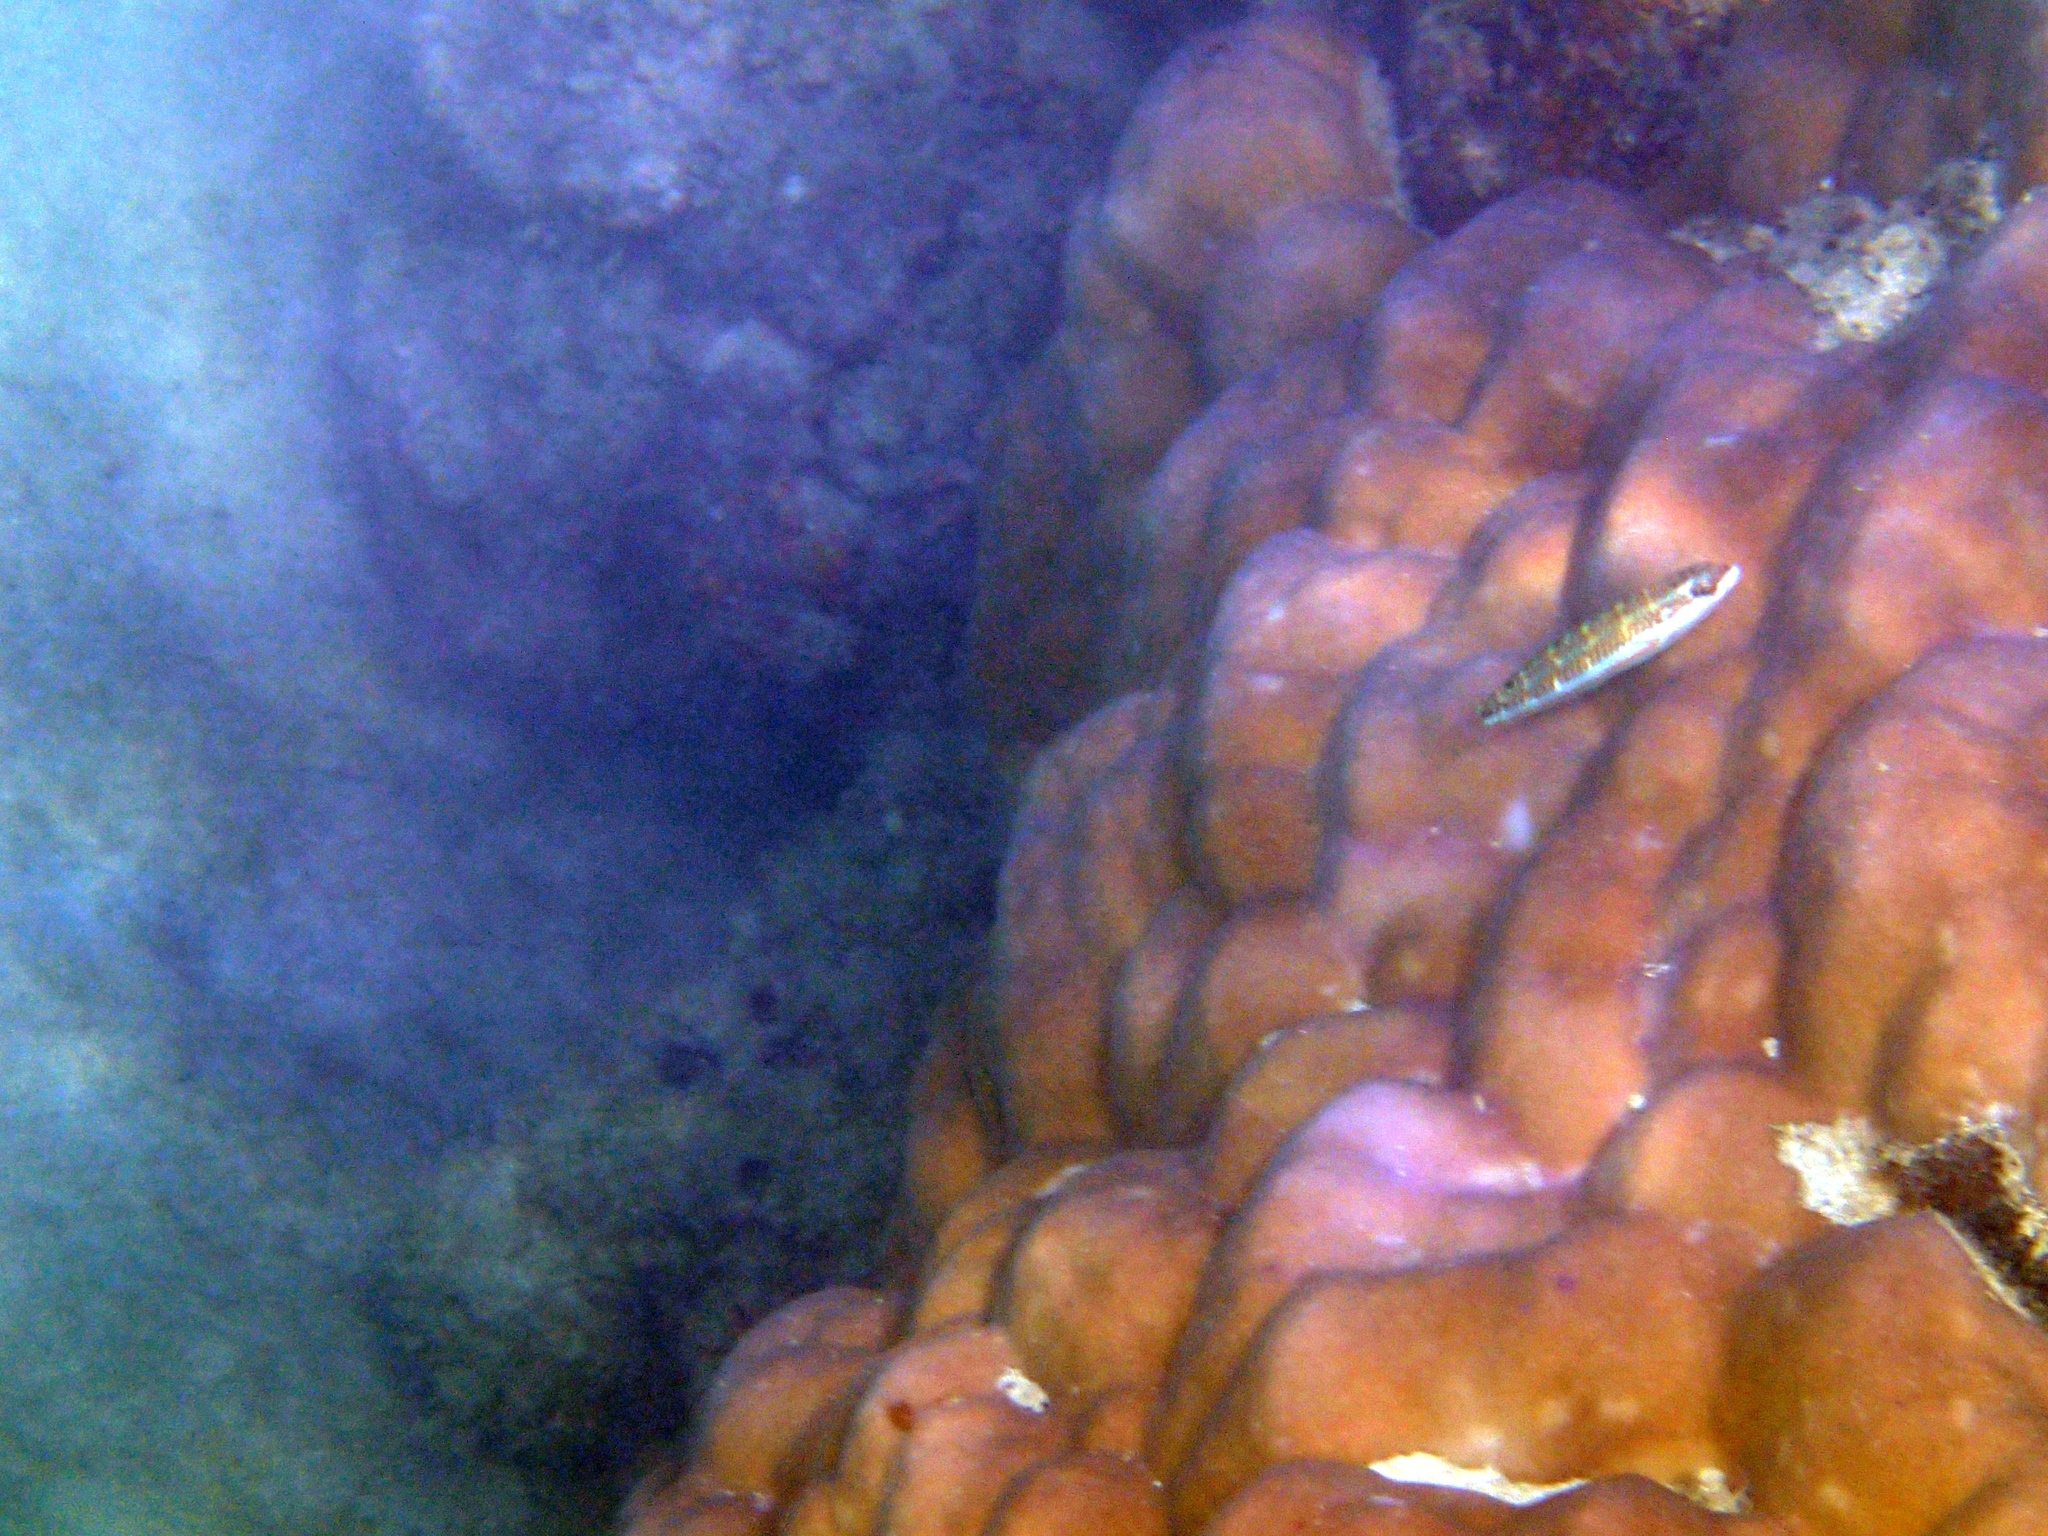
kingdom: Animalia
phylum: Chordata
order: Perciformes
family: Labridae
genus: Thalassoma
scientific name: Thalassoma quinquevittatum
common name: Five striped surge wrasse
